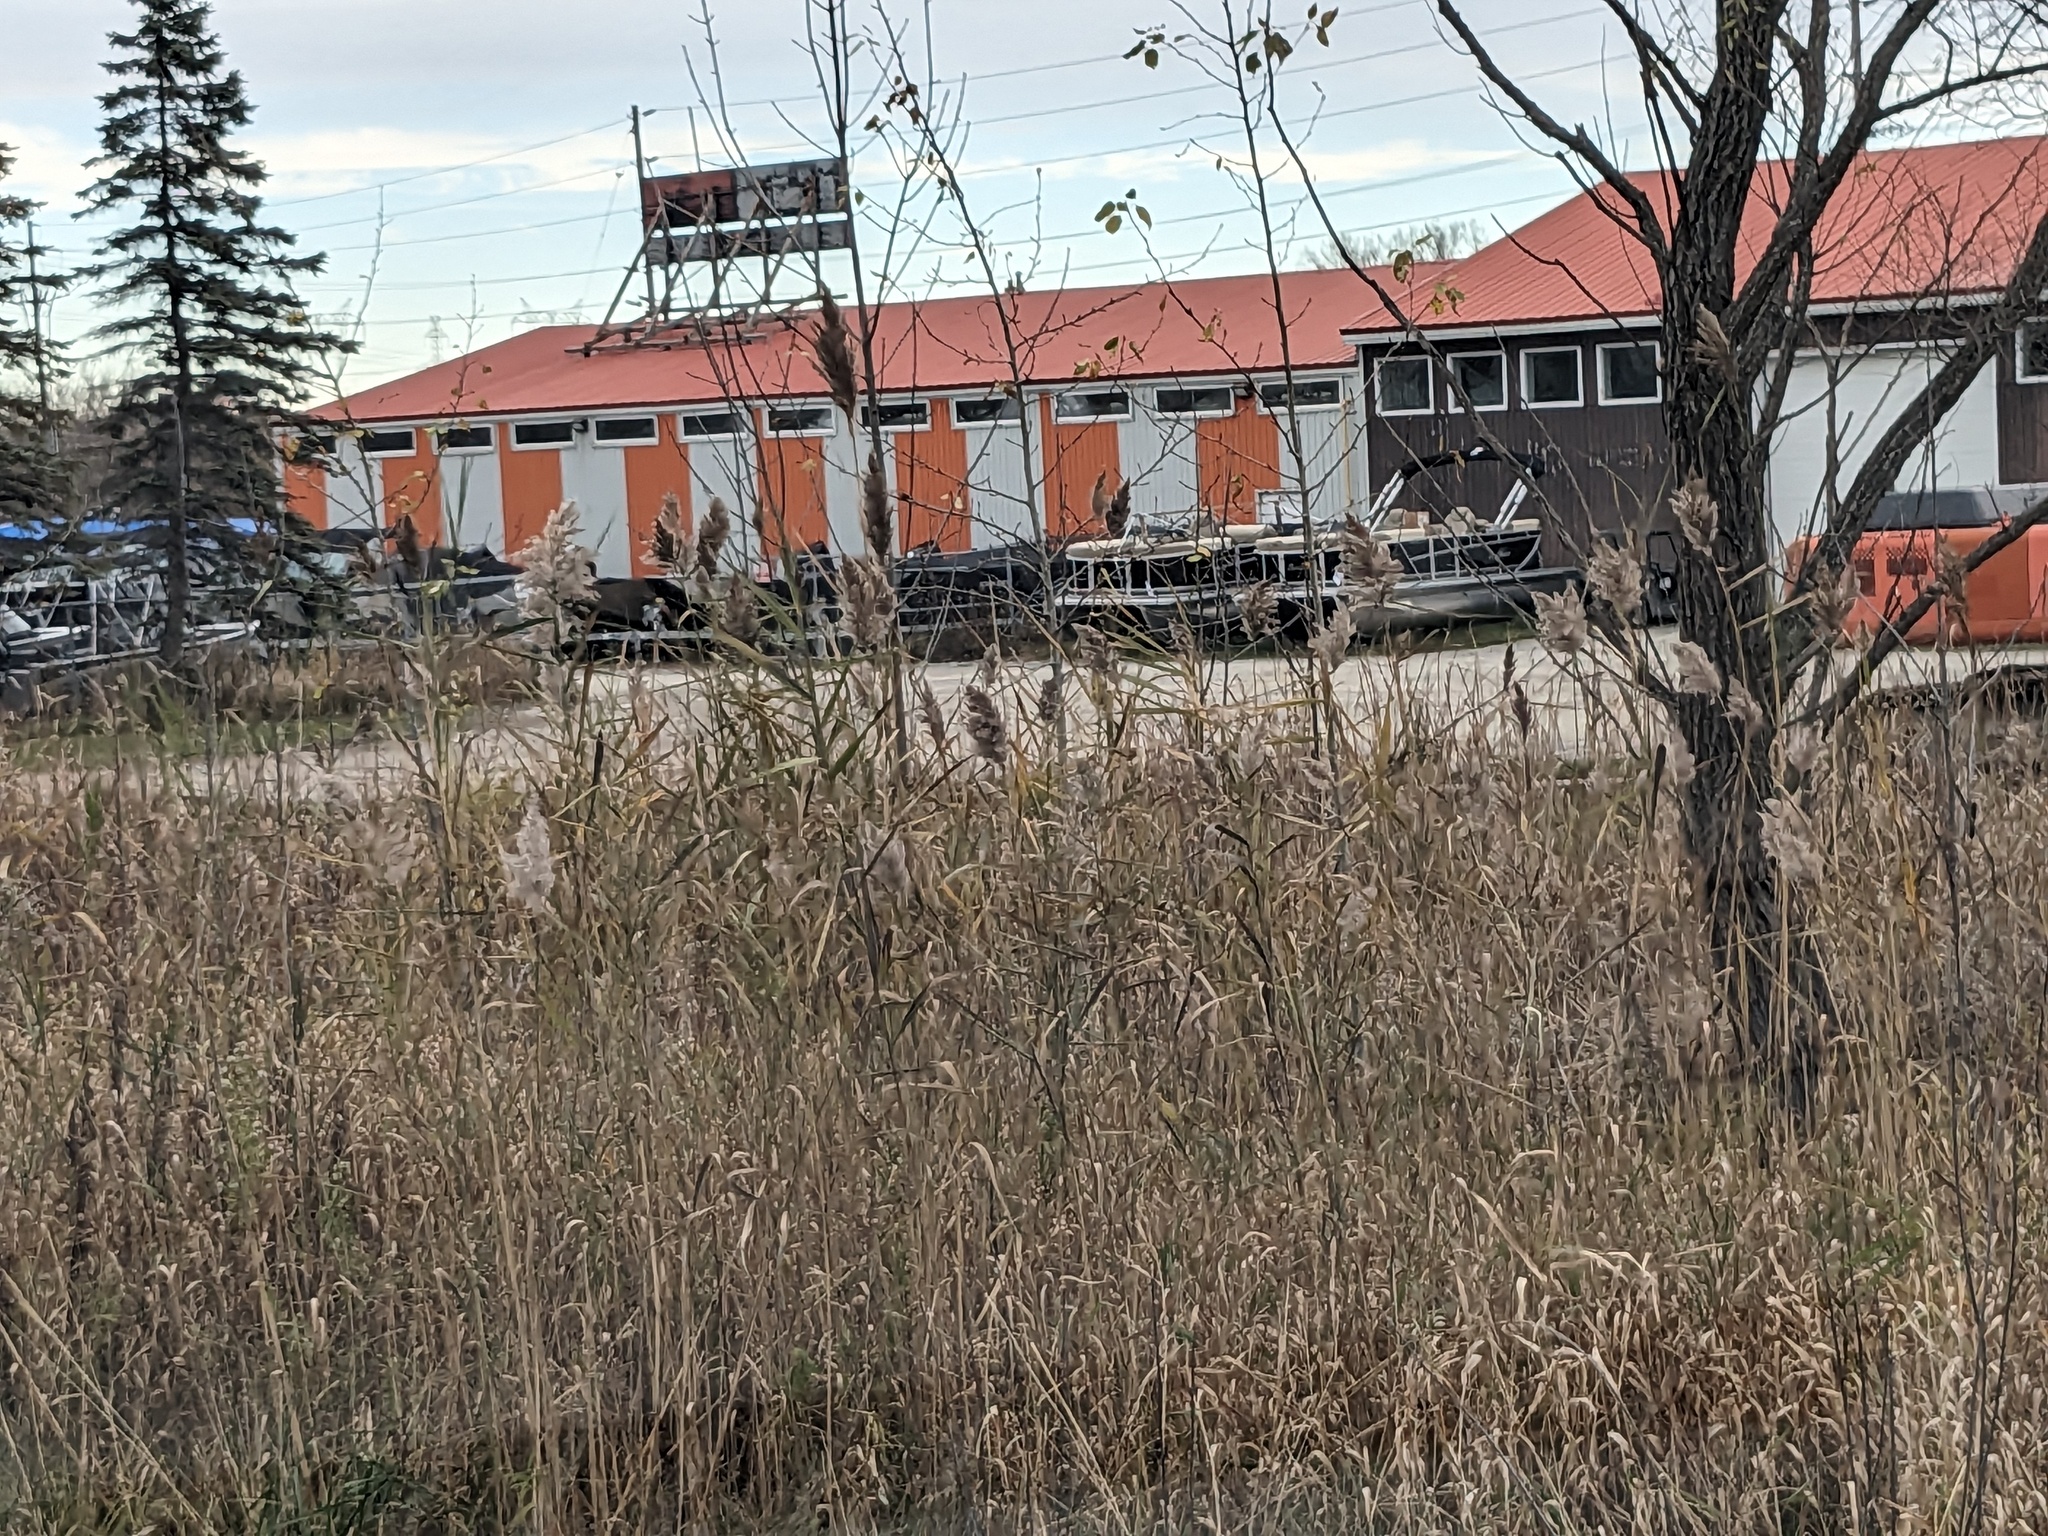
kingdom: Plantae
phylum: Tracheophyta
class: Liliopsida
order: Poales
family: Poaceae
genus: Phragmites
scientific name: Phragmites australis
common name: Common reed
